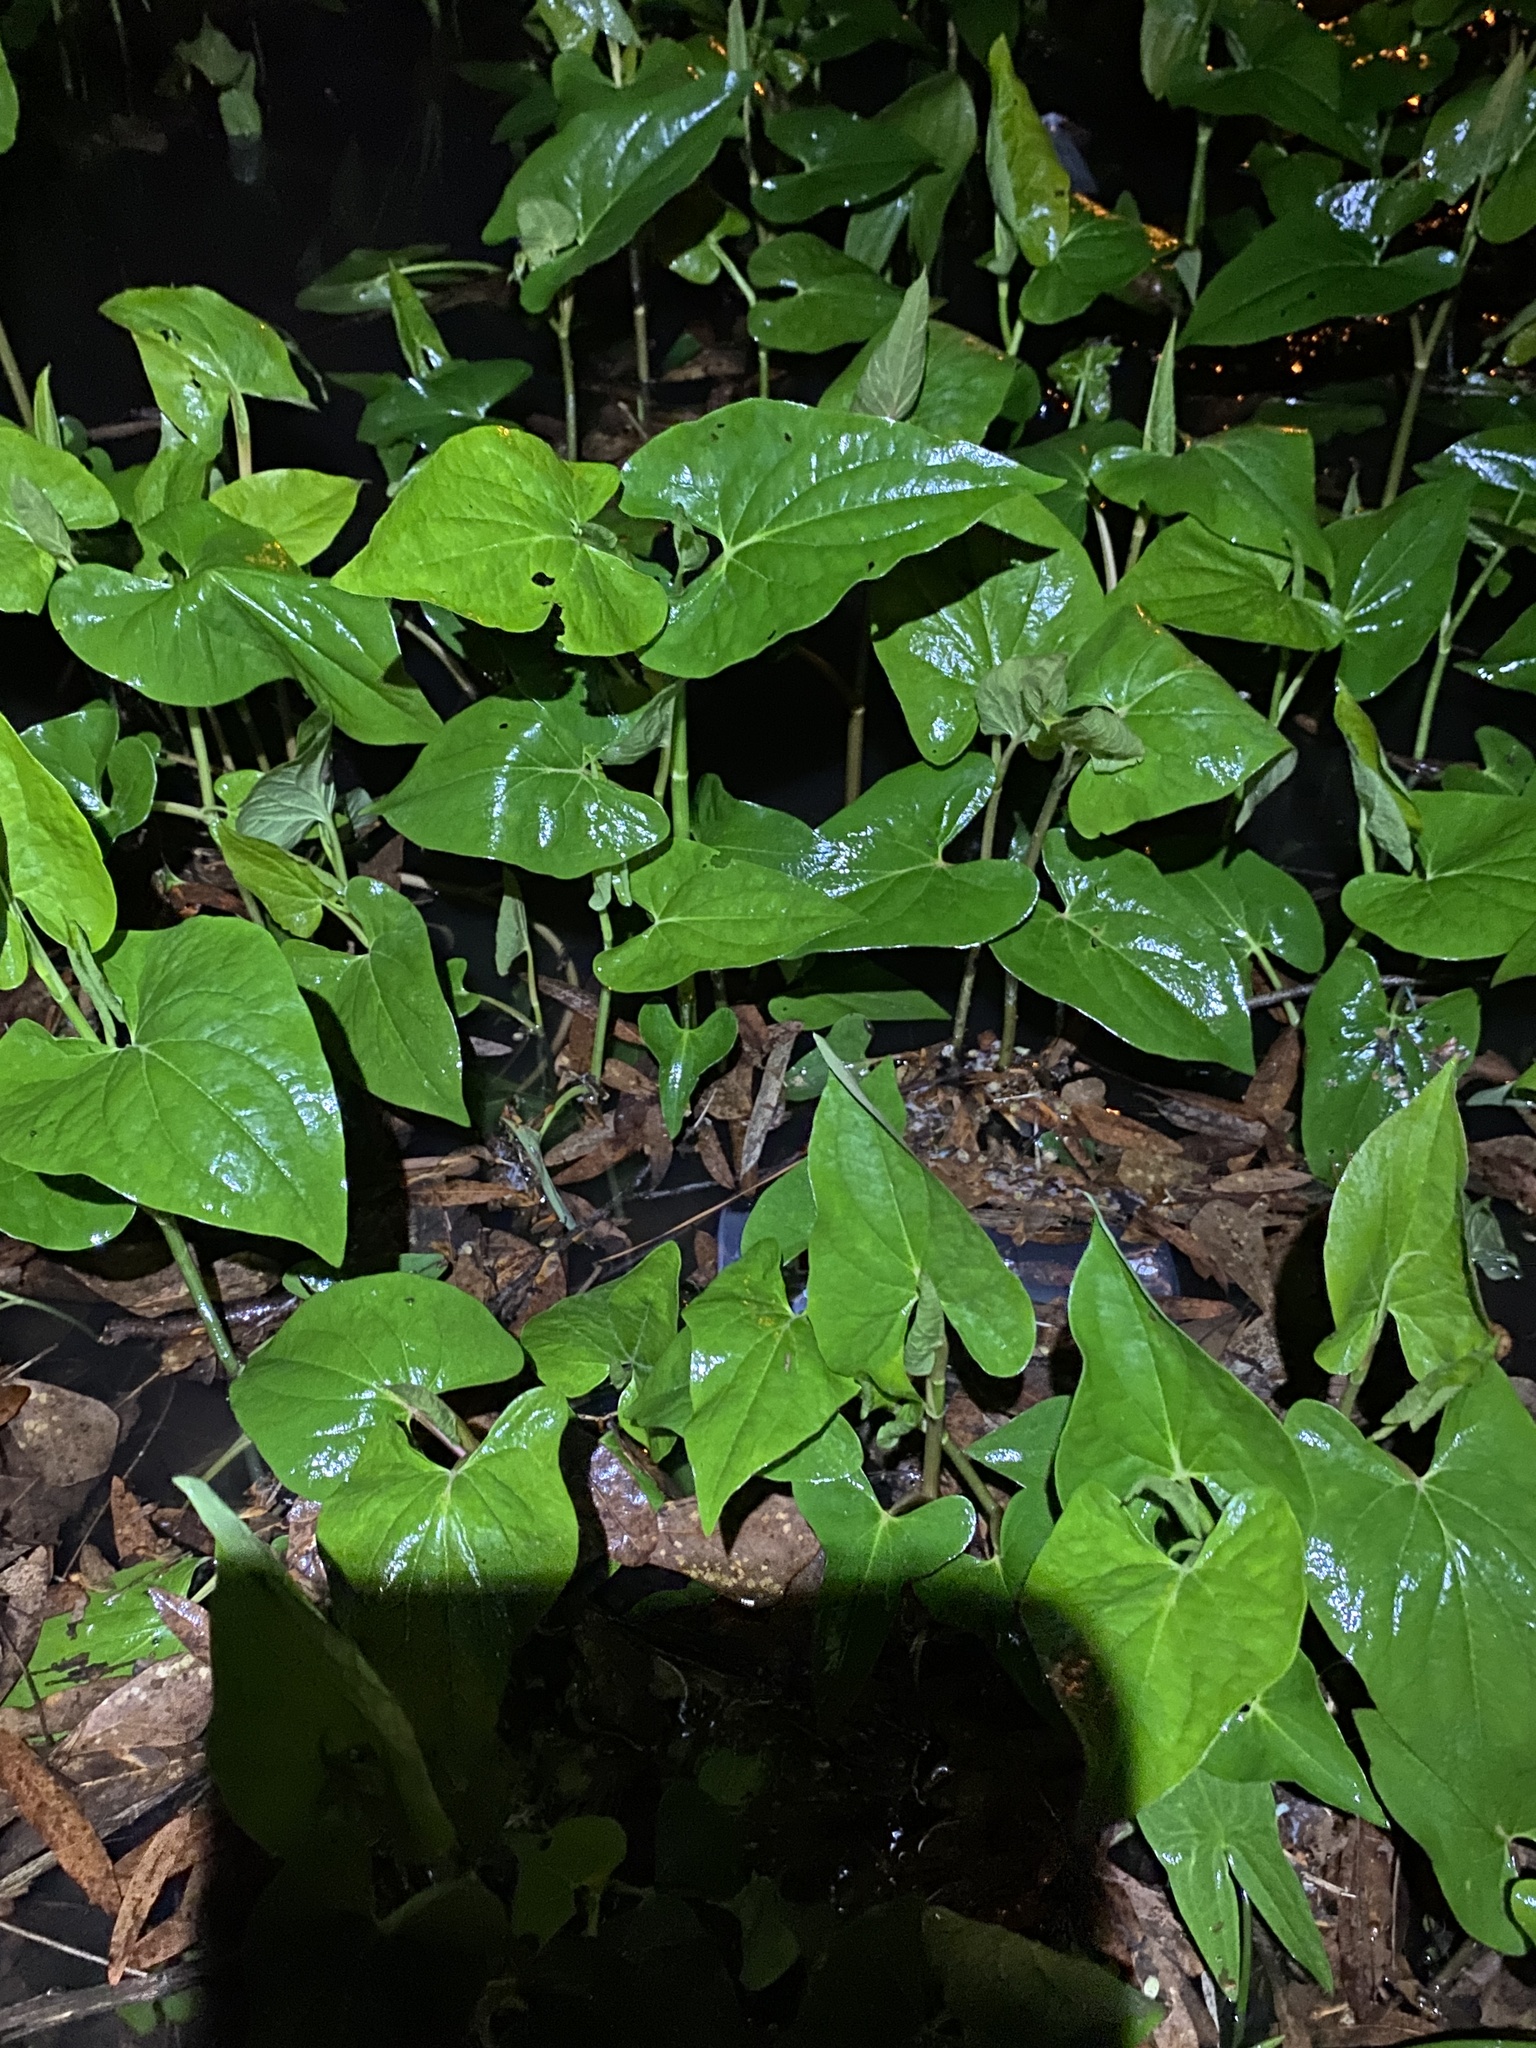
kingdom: Plantae
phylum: Tracheophyta
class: Magnoliopsida
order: Piperales
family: Saururaceae
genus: Saururus
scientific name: Saururus cernuus
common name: Lizard's-tail
